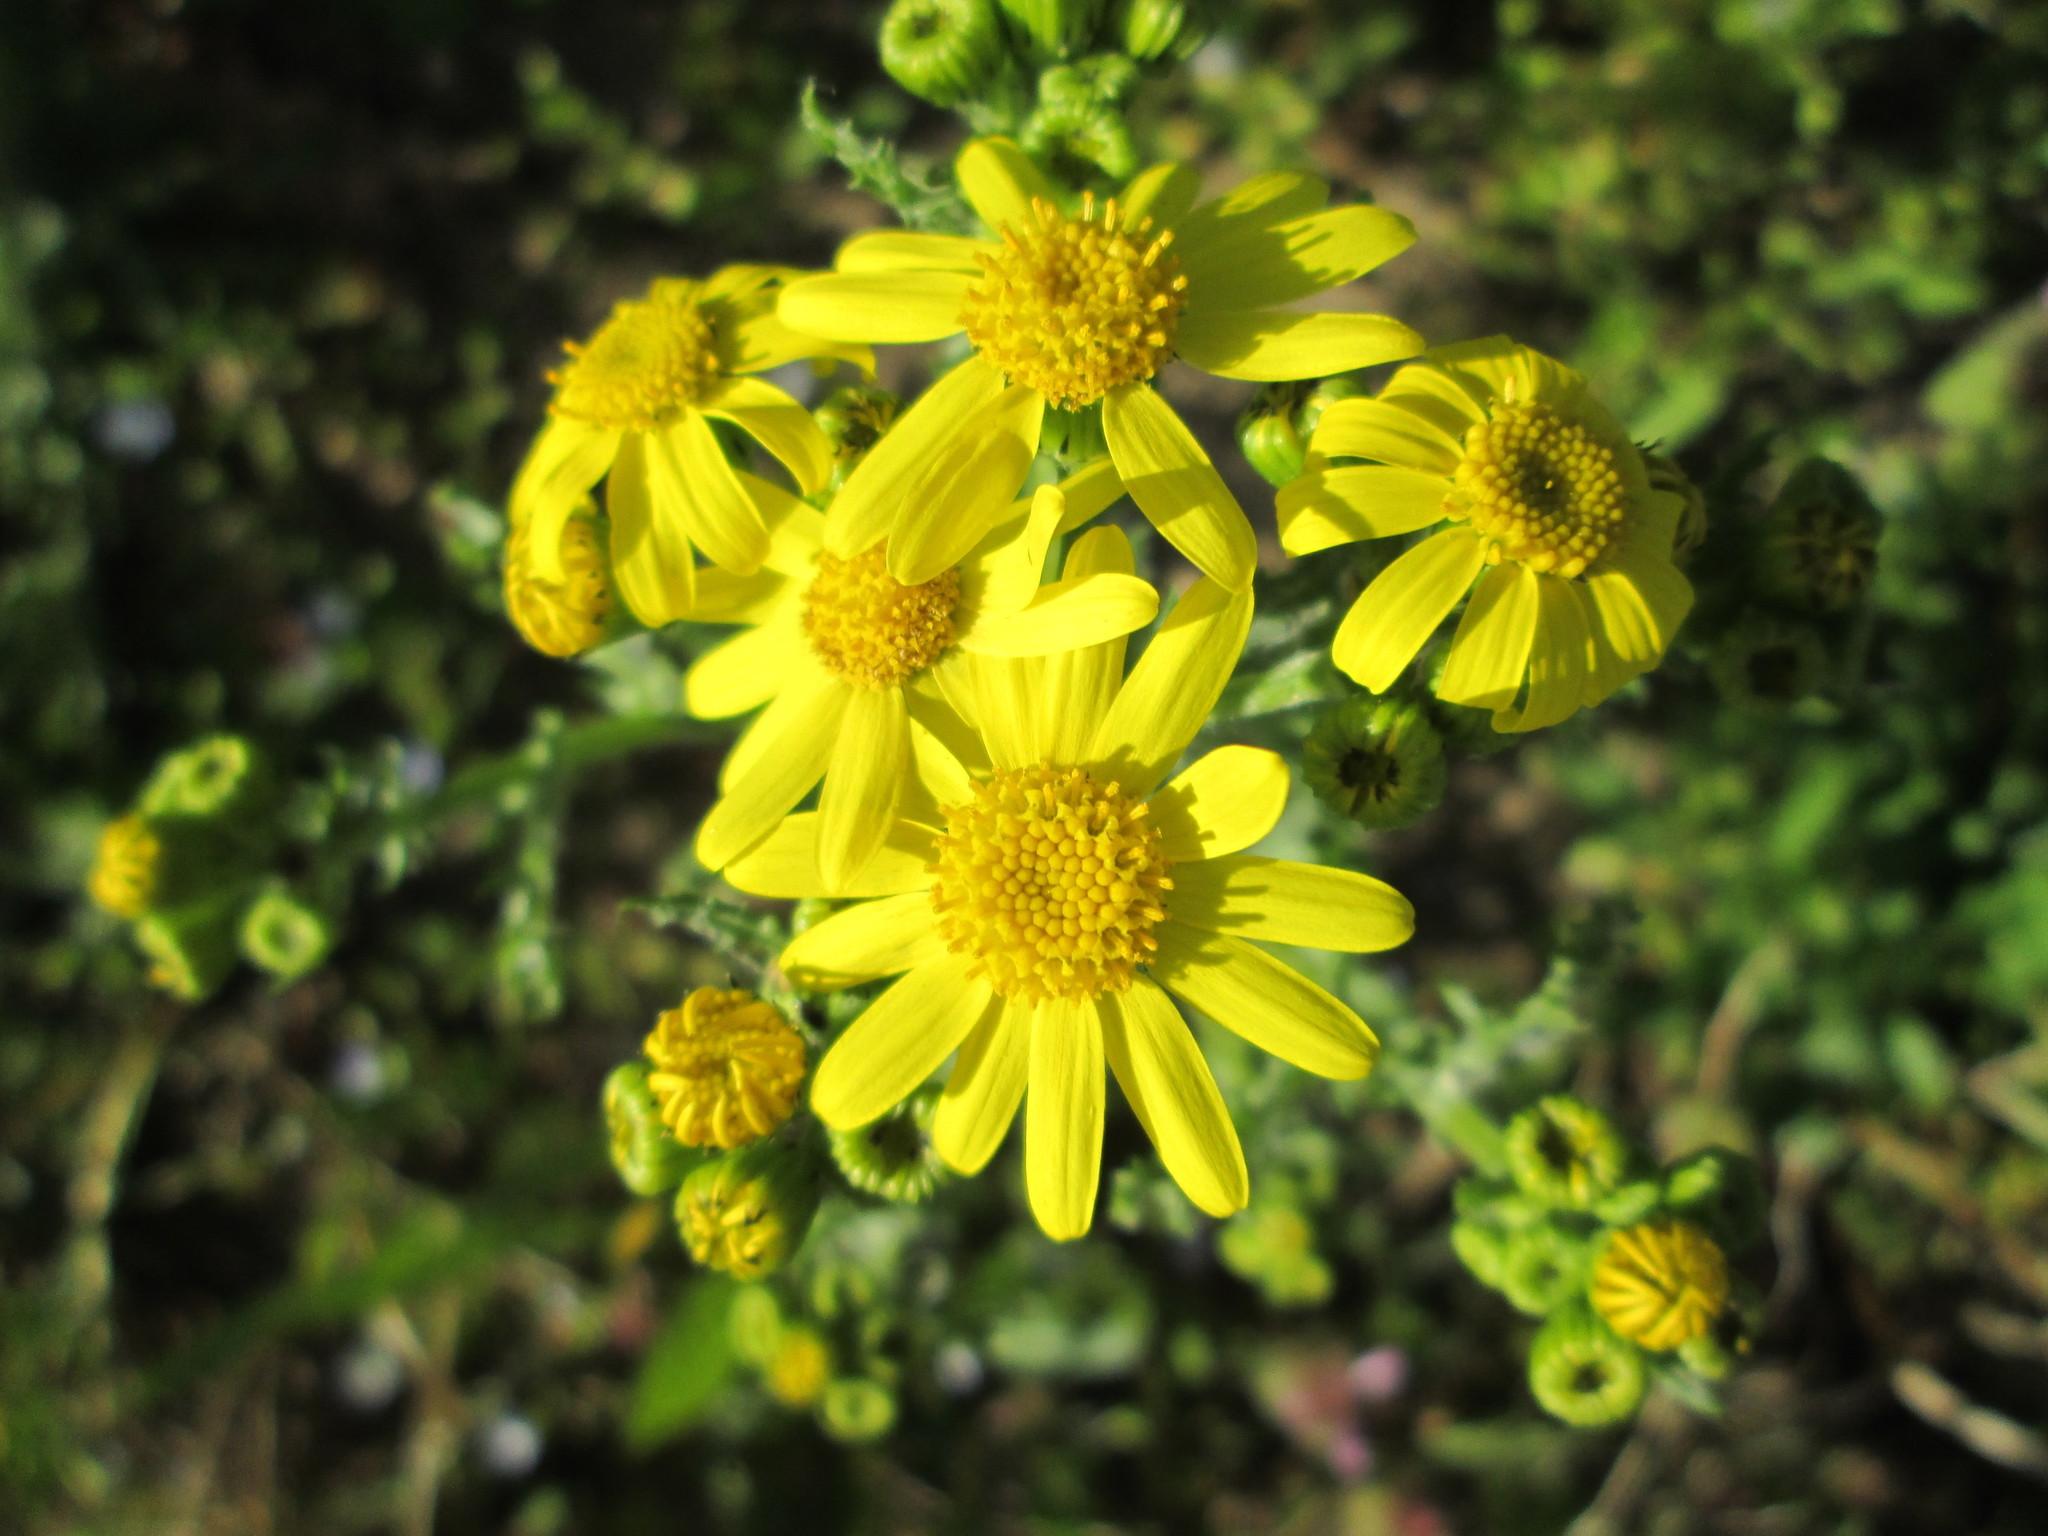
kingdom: Plantae
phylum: Tracheophyta
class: Magnoliopsida
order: Asterales
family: Asteraceae
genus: Senecio
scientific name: Senecio vernalis
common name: Eastern groundsel
